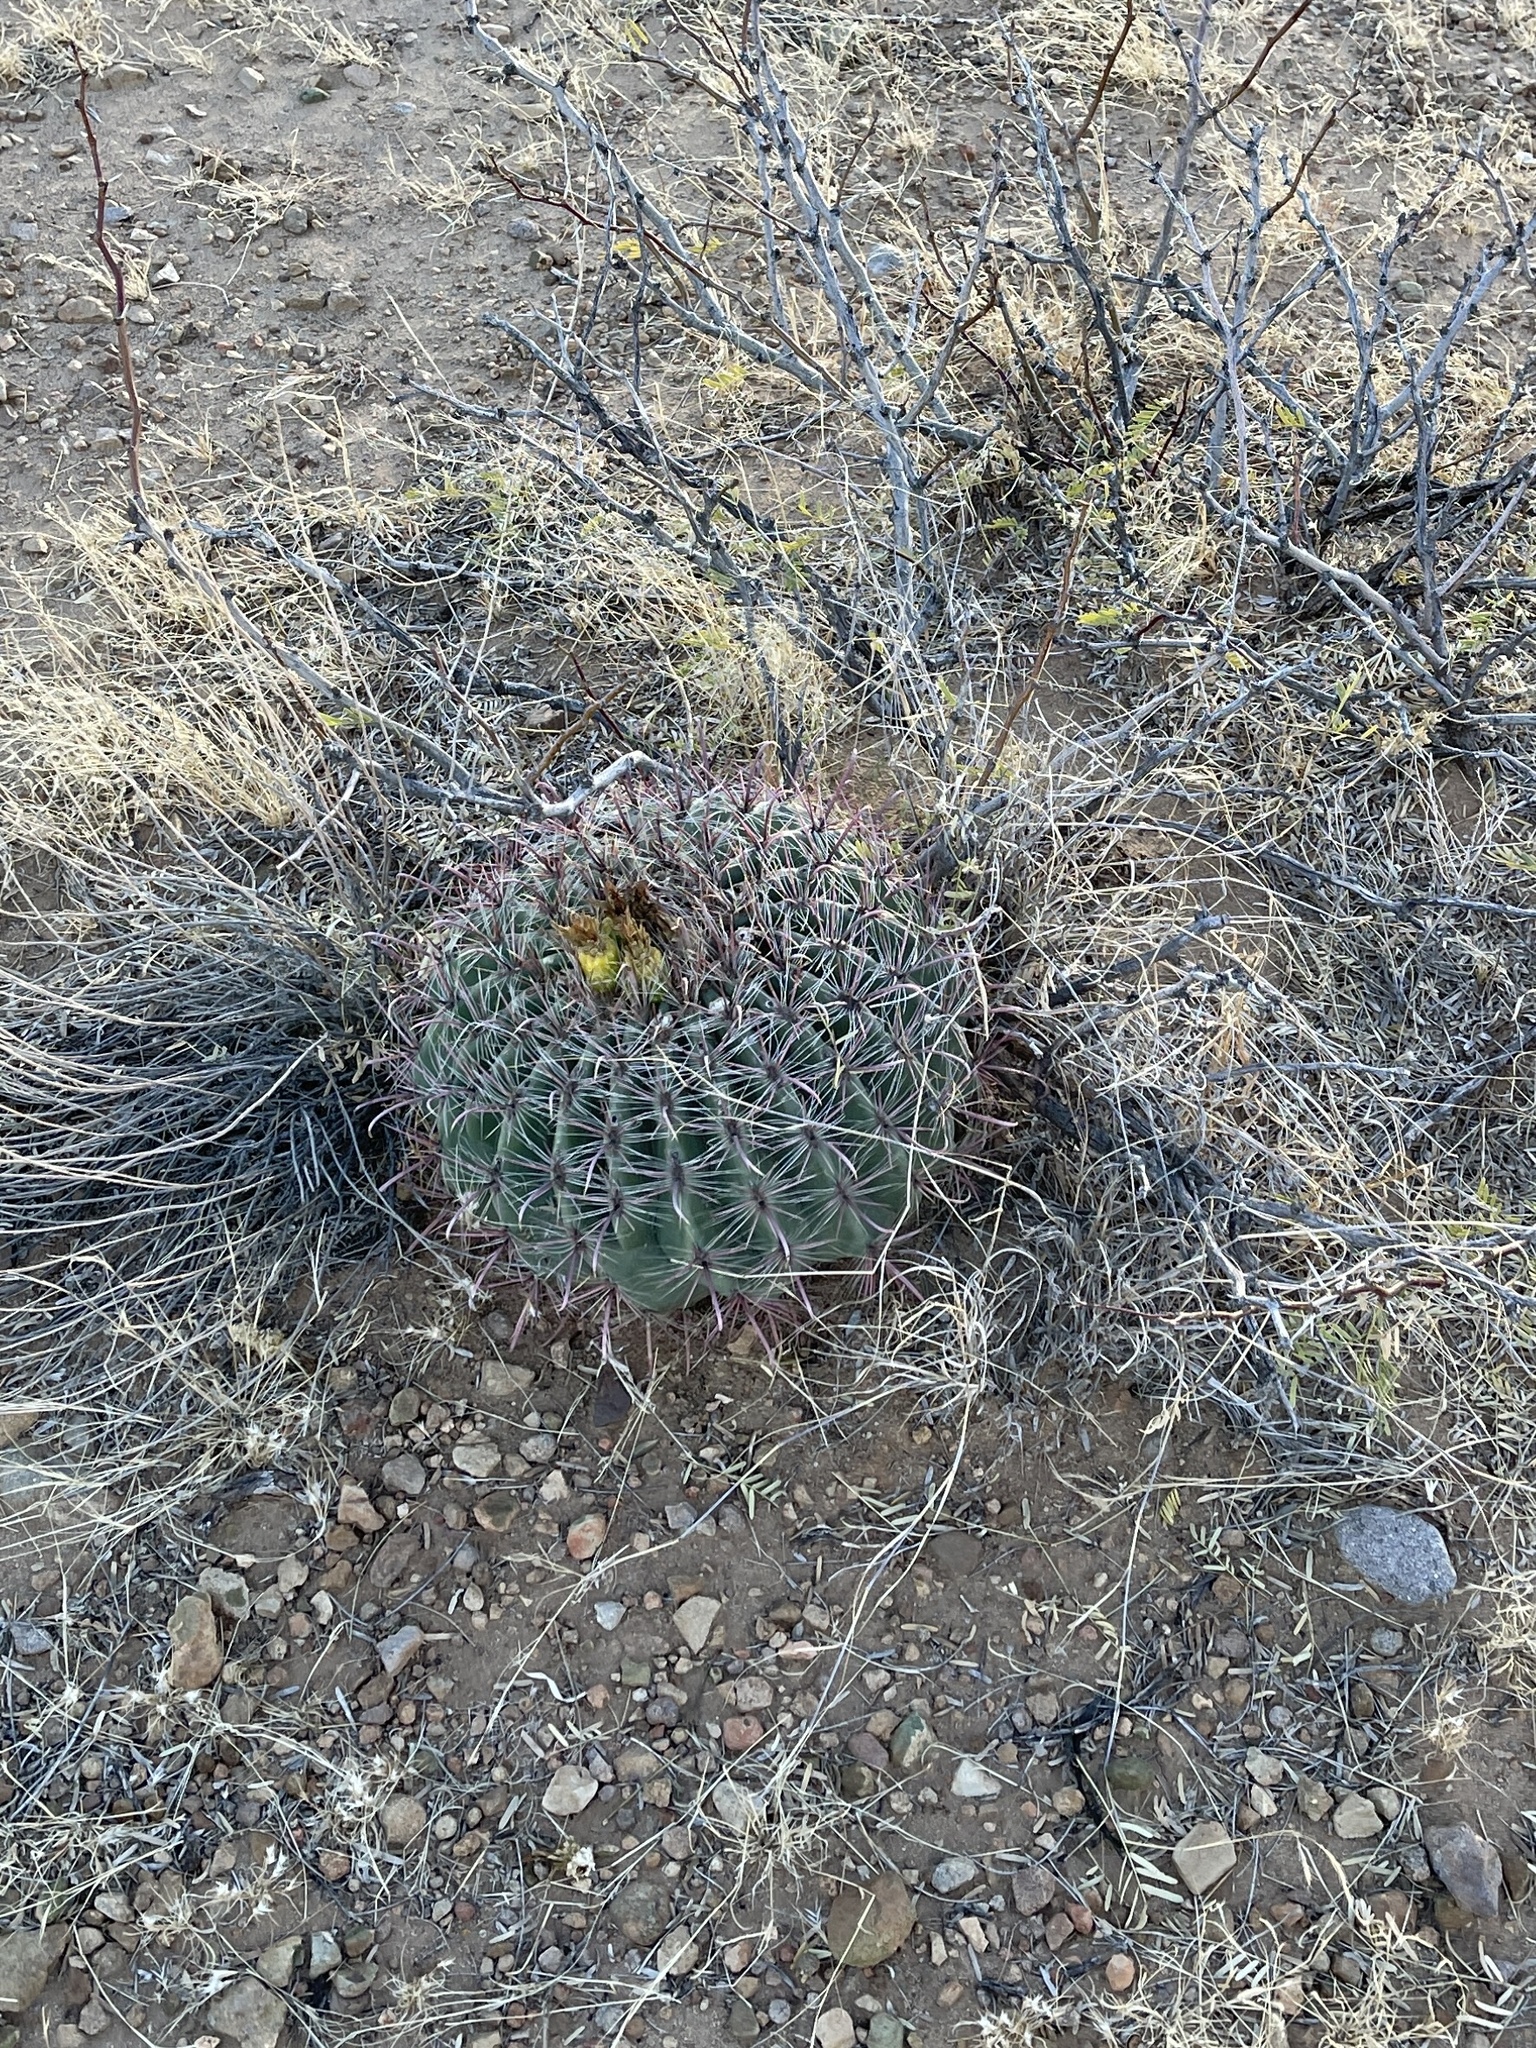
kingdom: Plantae
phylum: Tracheophyta
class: Magnoliopsida
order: Caryophyllales
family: Cactaceae
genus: Ferocactus
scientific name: Ferocactus wislizeni
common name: Candy barrel cactus
